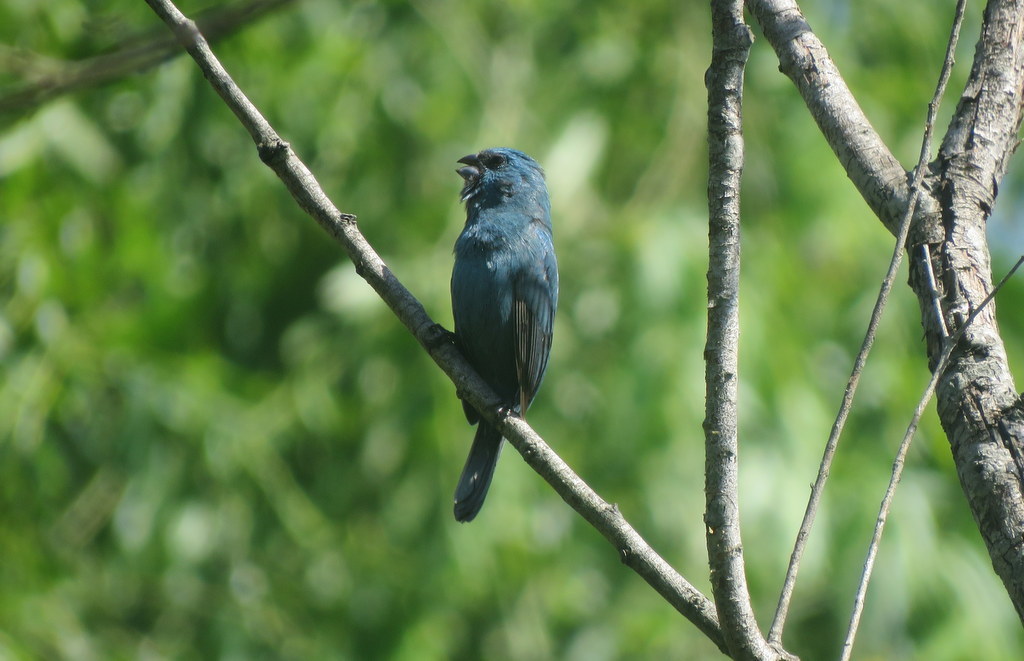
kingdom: Animalia
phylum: Chordata
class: Aves
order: Passeriformes
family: Cardinalidae
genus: Cyanoloxia
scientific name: Cyanoloxia glaucocaerulea
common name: Glaucous-blue grosbeak
